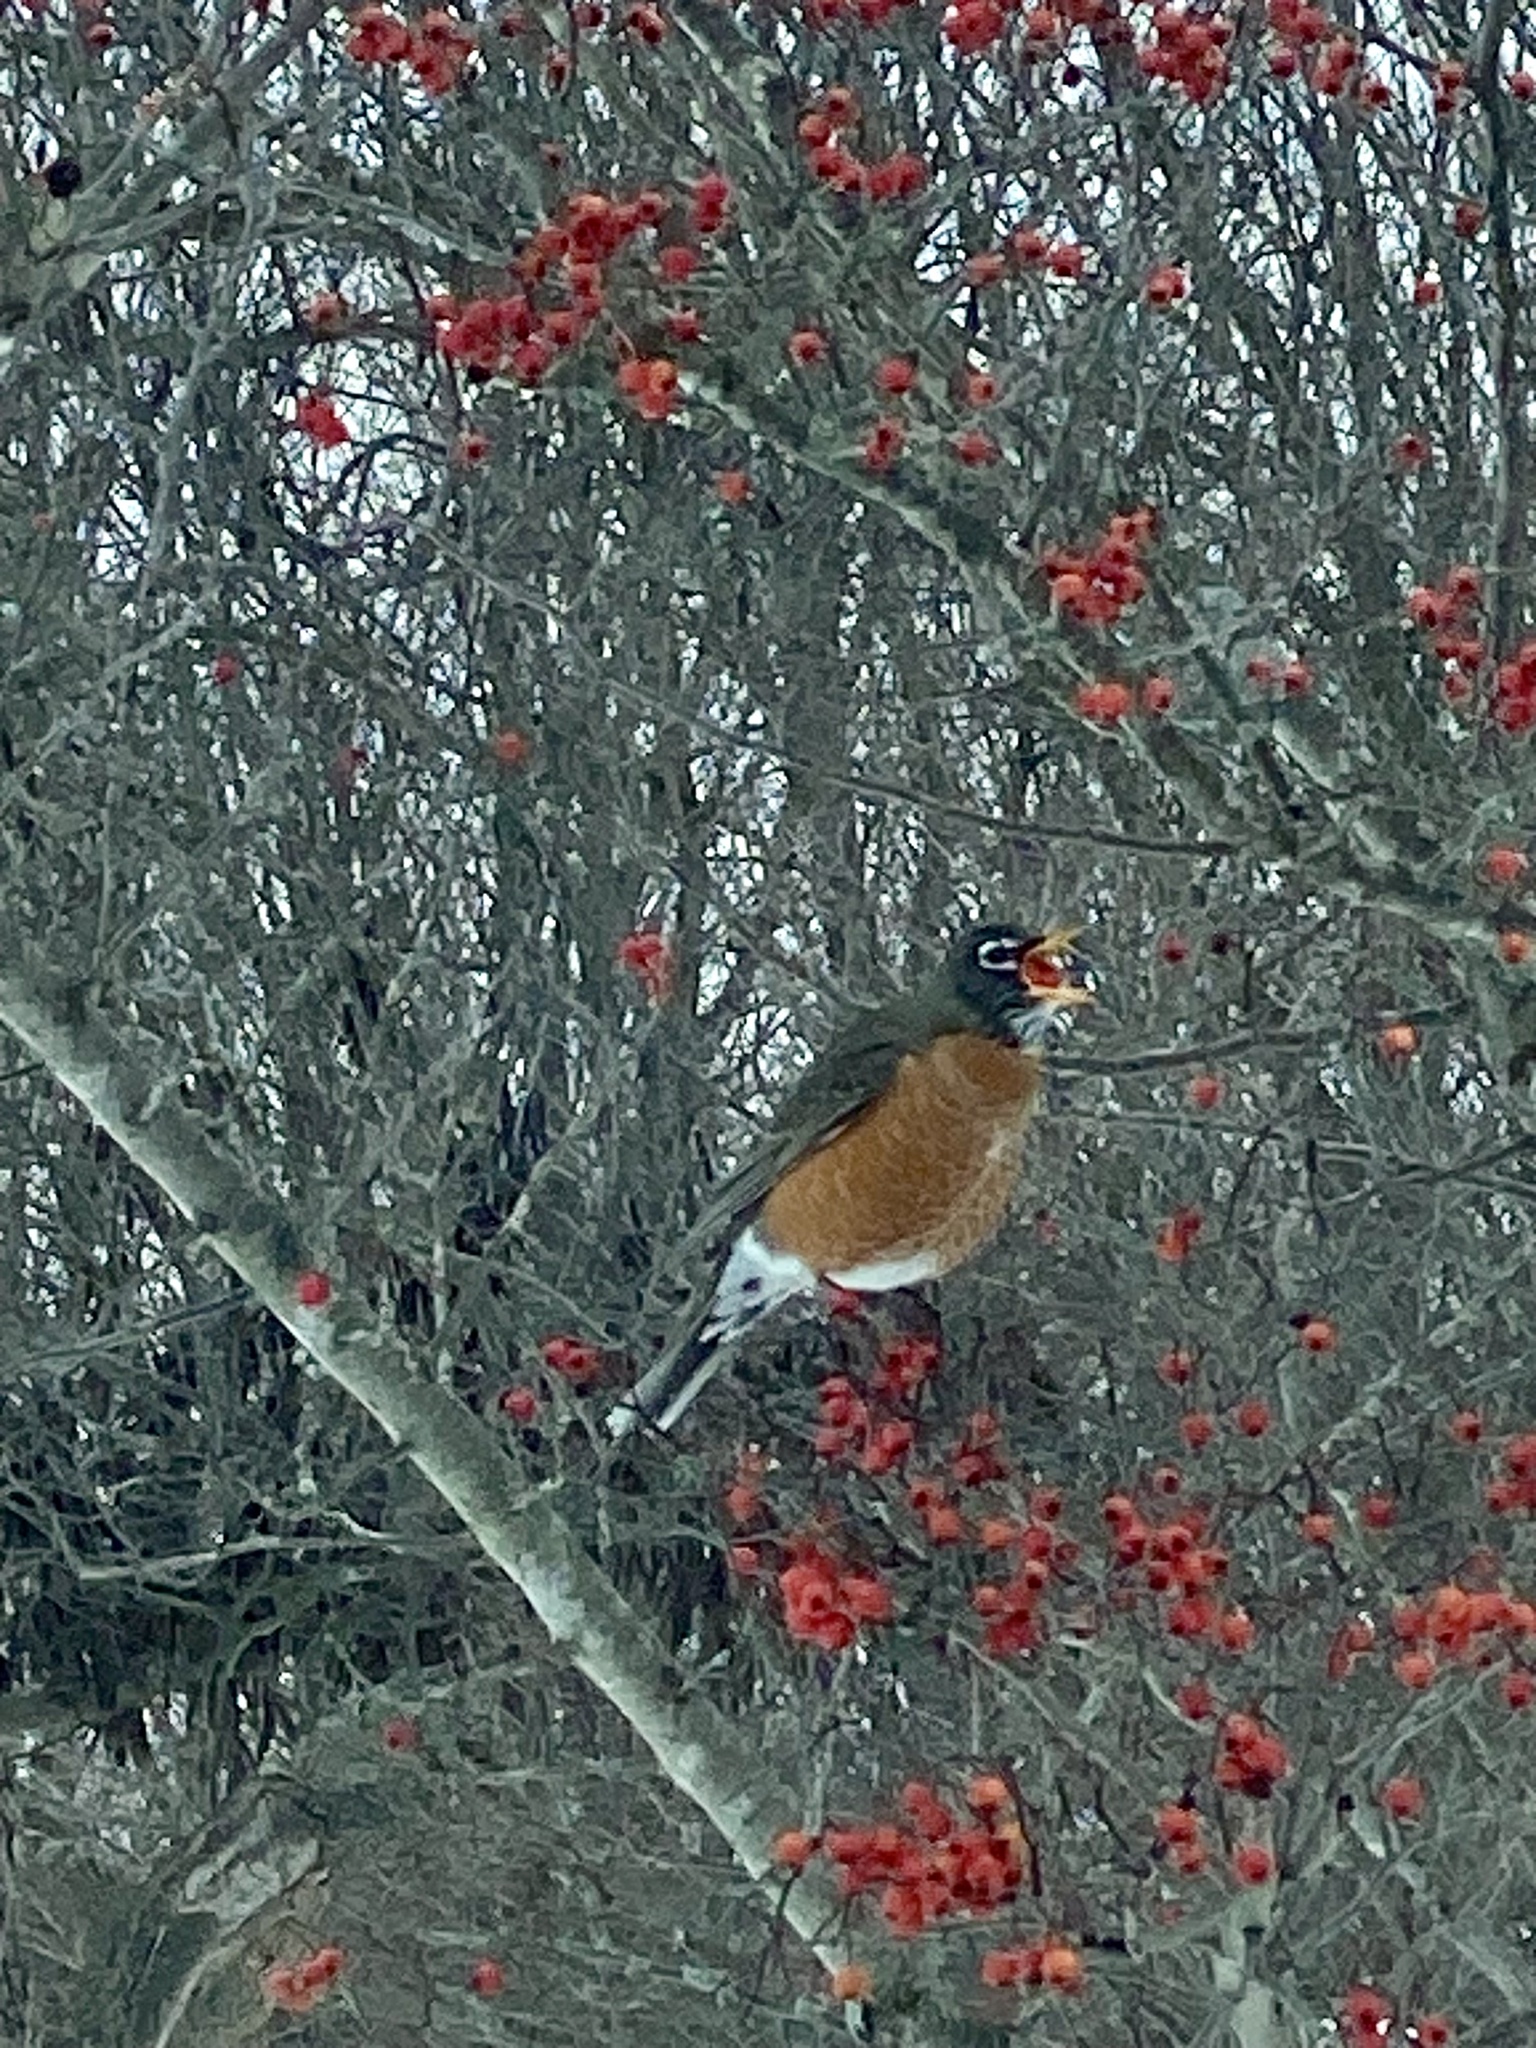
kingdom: Animalia
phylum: Chordata
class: Aves
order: Passeriformes
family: Turdidae
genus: Turdus
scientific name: Turdus migratorius
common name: American robin
